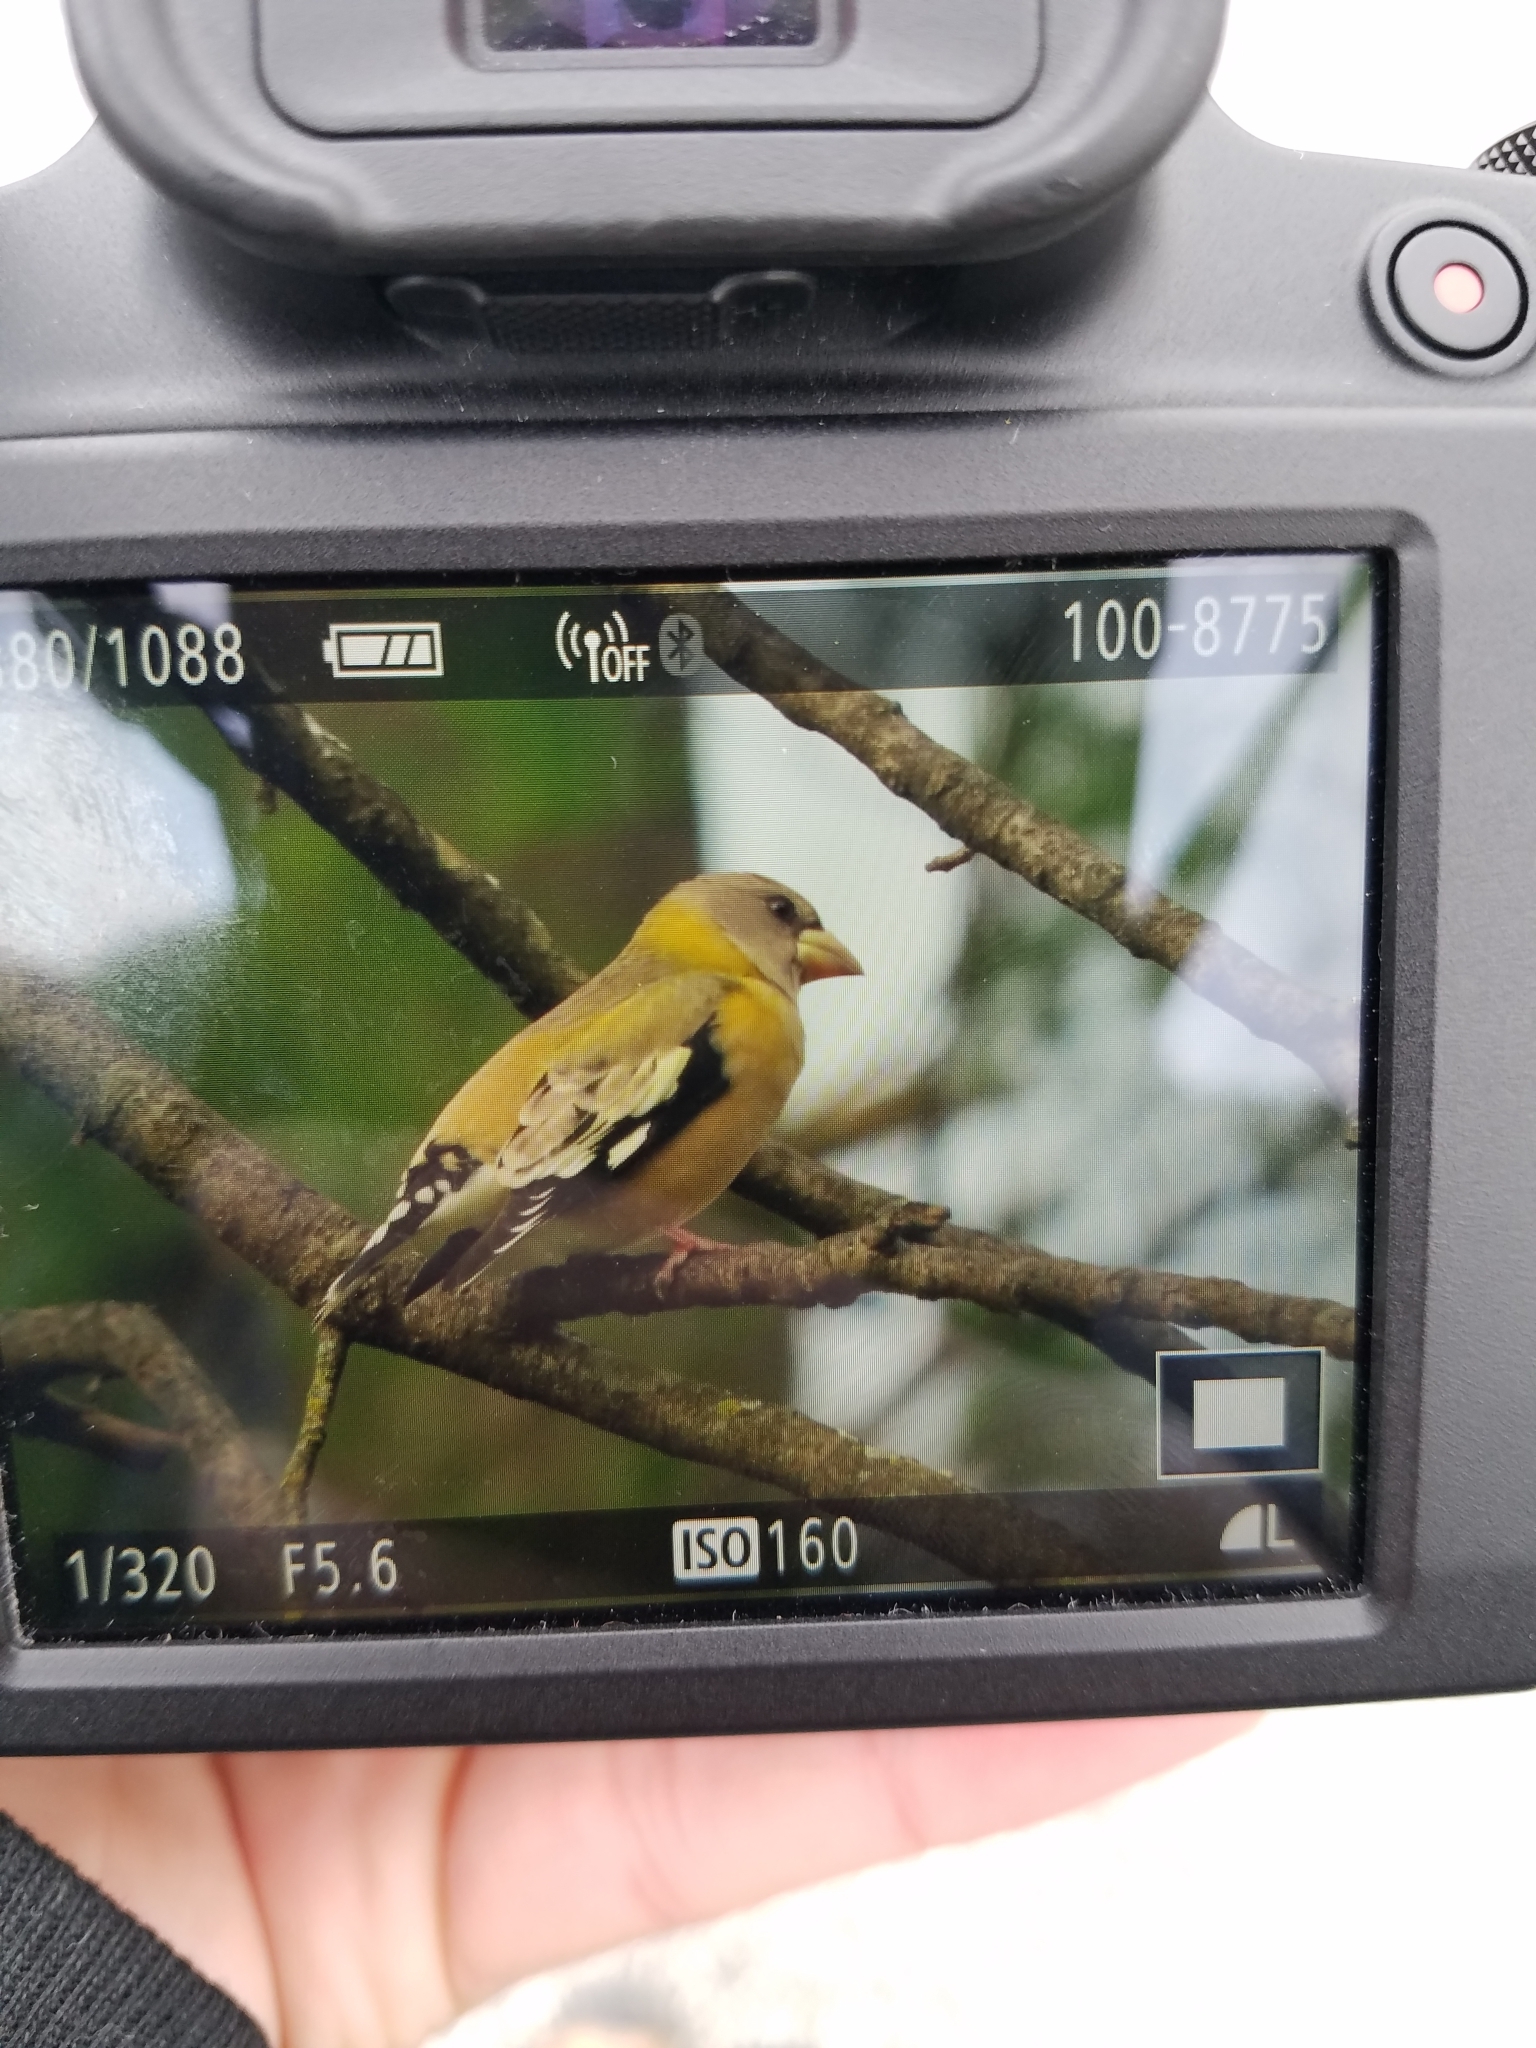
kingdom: Animalia
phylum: Chordata
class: Aves
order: Passeriformes
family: Fringillidae
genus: Hesperiphona
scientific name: Hesperiphona vespertina
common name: Evening grosbeak
